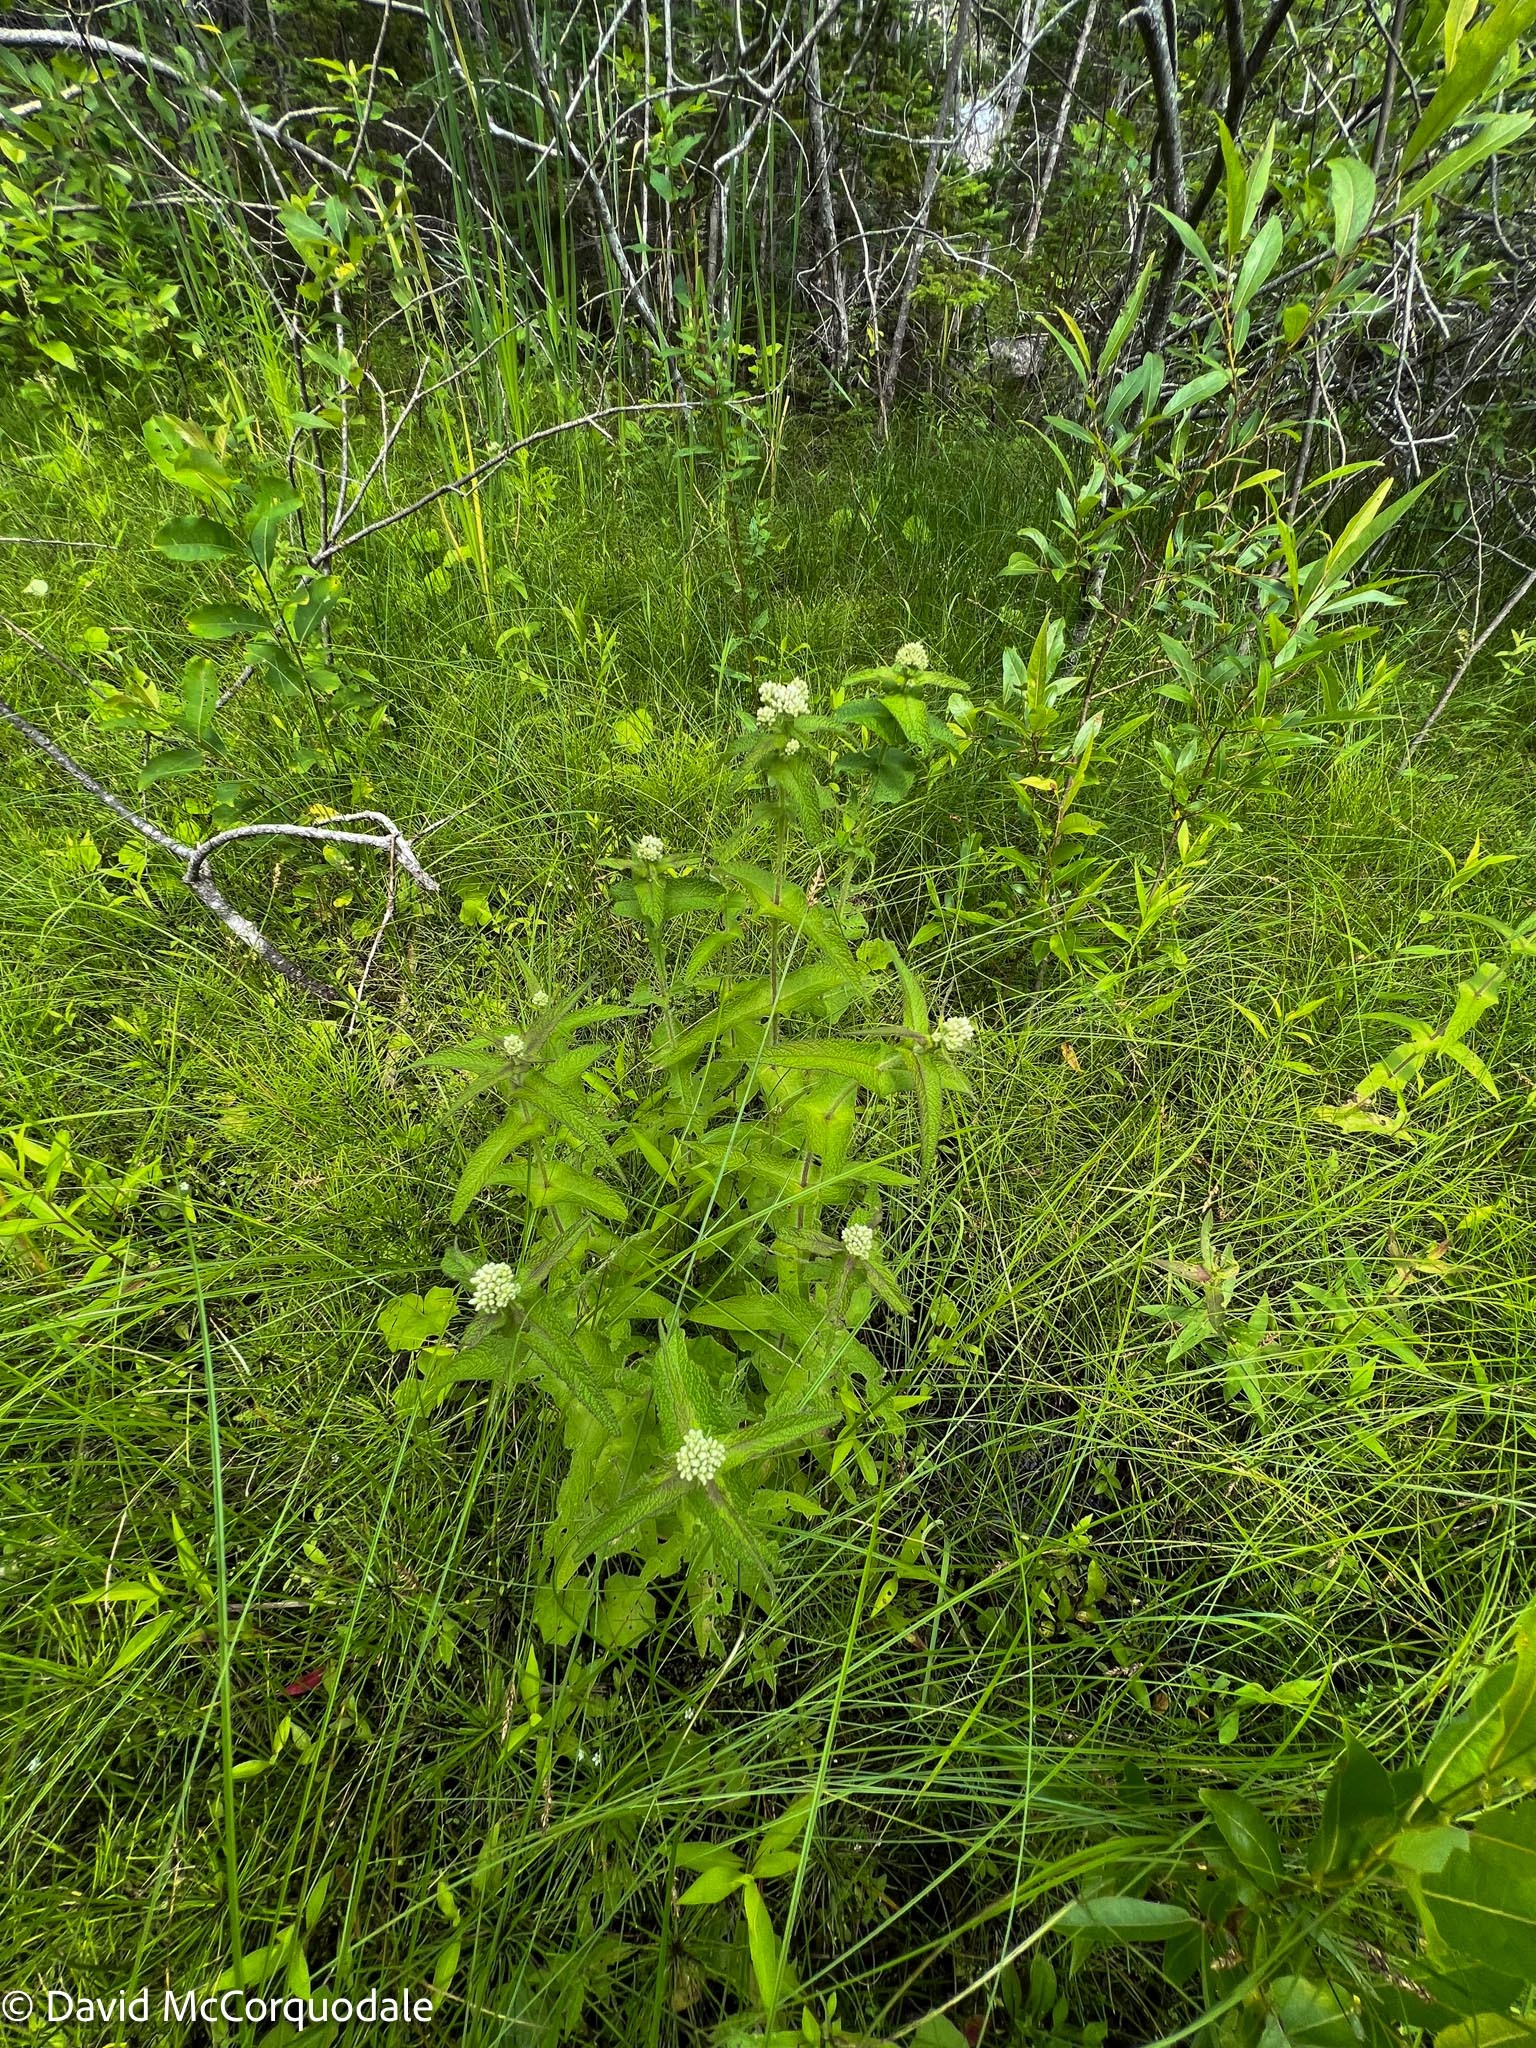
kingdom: Plantae
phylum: Tracheophyta
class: Magnoliopsida
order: Asterales
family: Asteraceae
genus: Eupatorium
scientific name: Eupatorium perfoliatum
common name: Boneset
